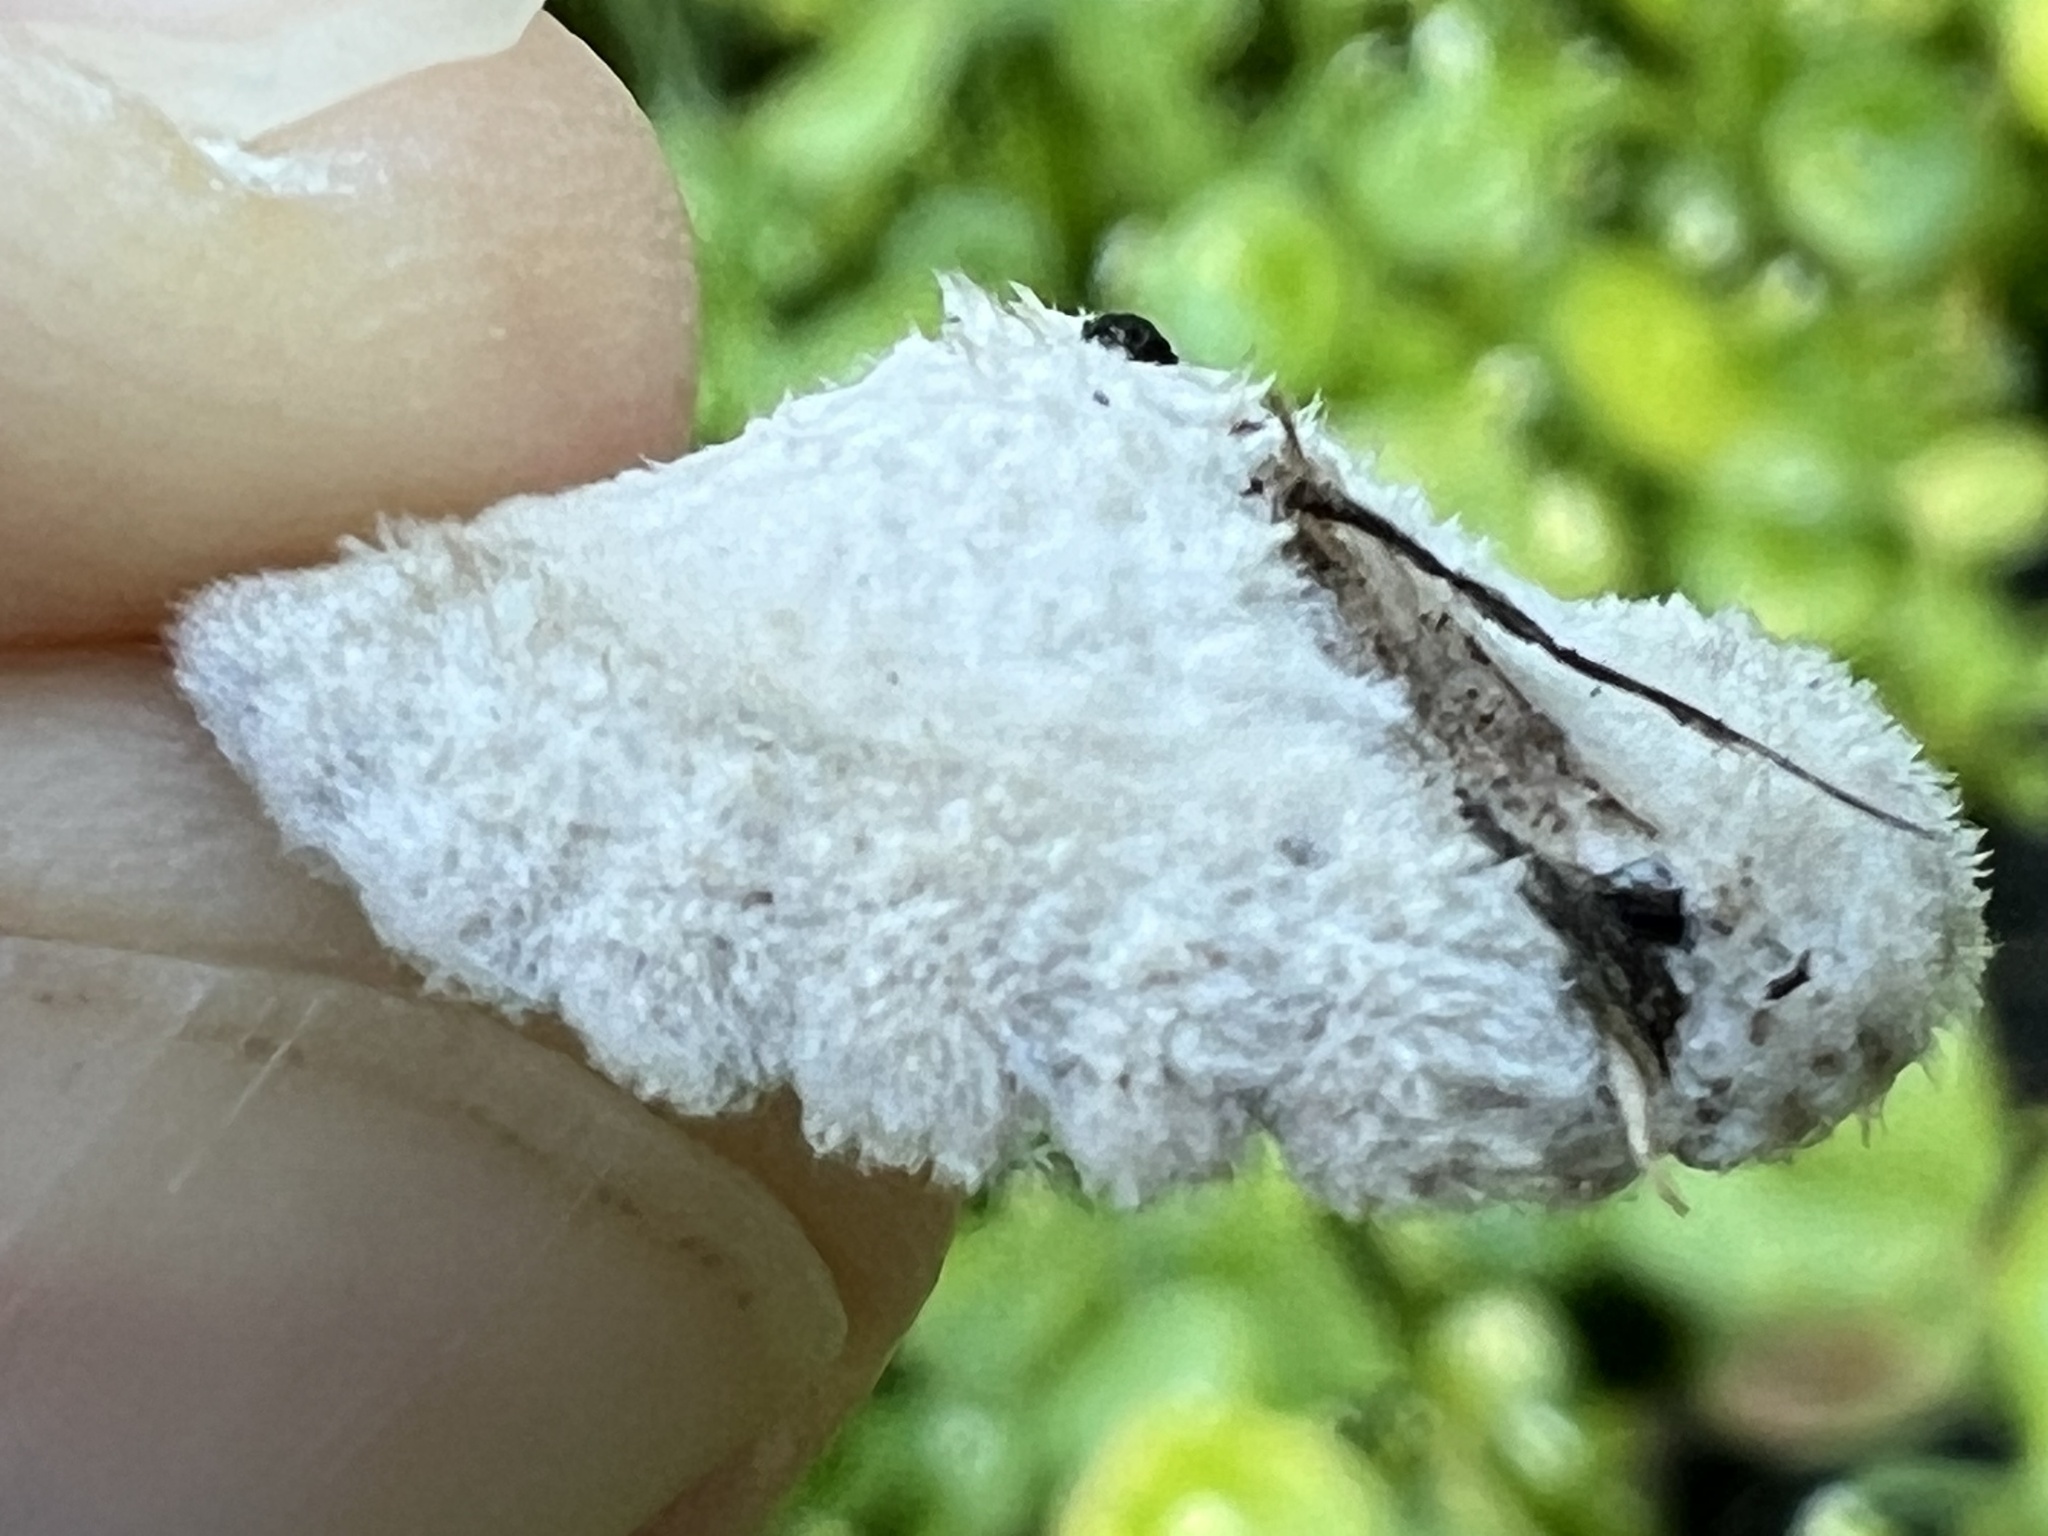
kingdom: Fungi
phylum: Basidiomycota
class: Agaricomycetes
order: Agaricales
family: Schizophyllaceae
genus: Schizophyllum
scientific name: Schizophyllum commune
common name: Common porecrust
